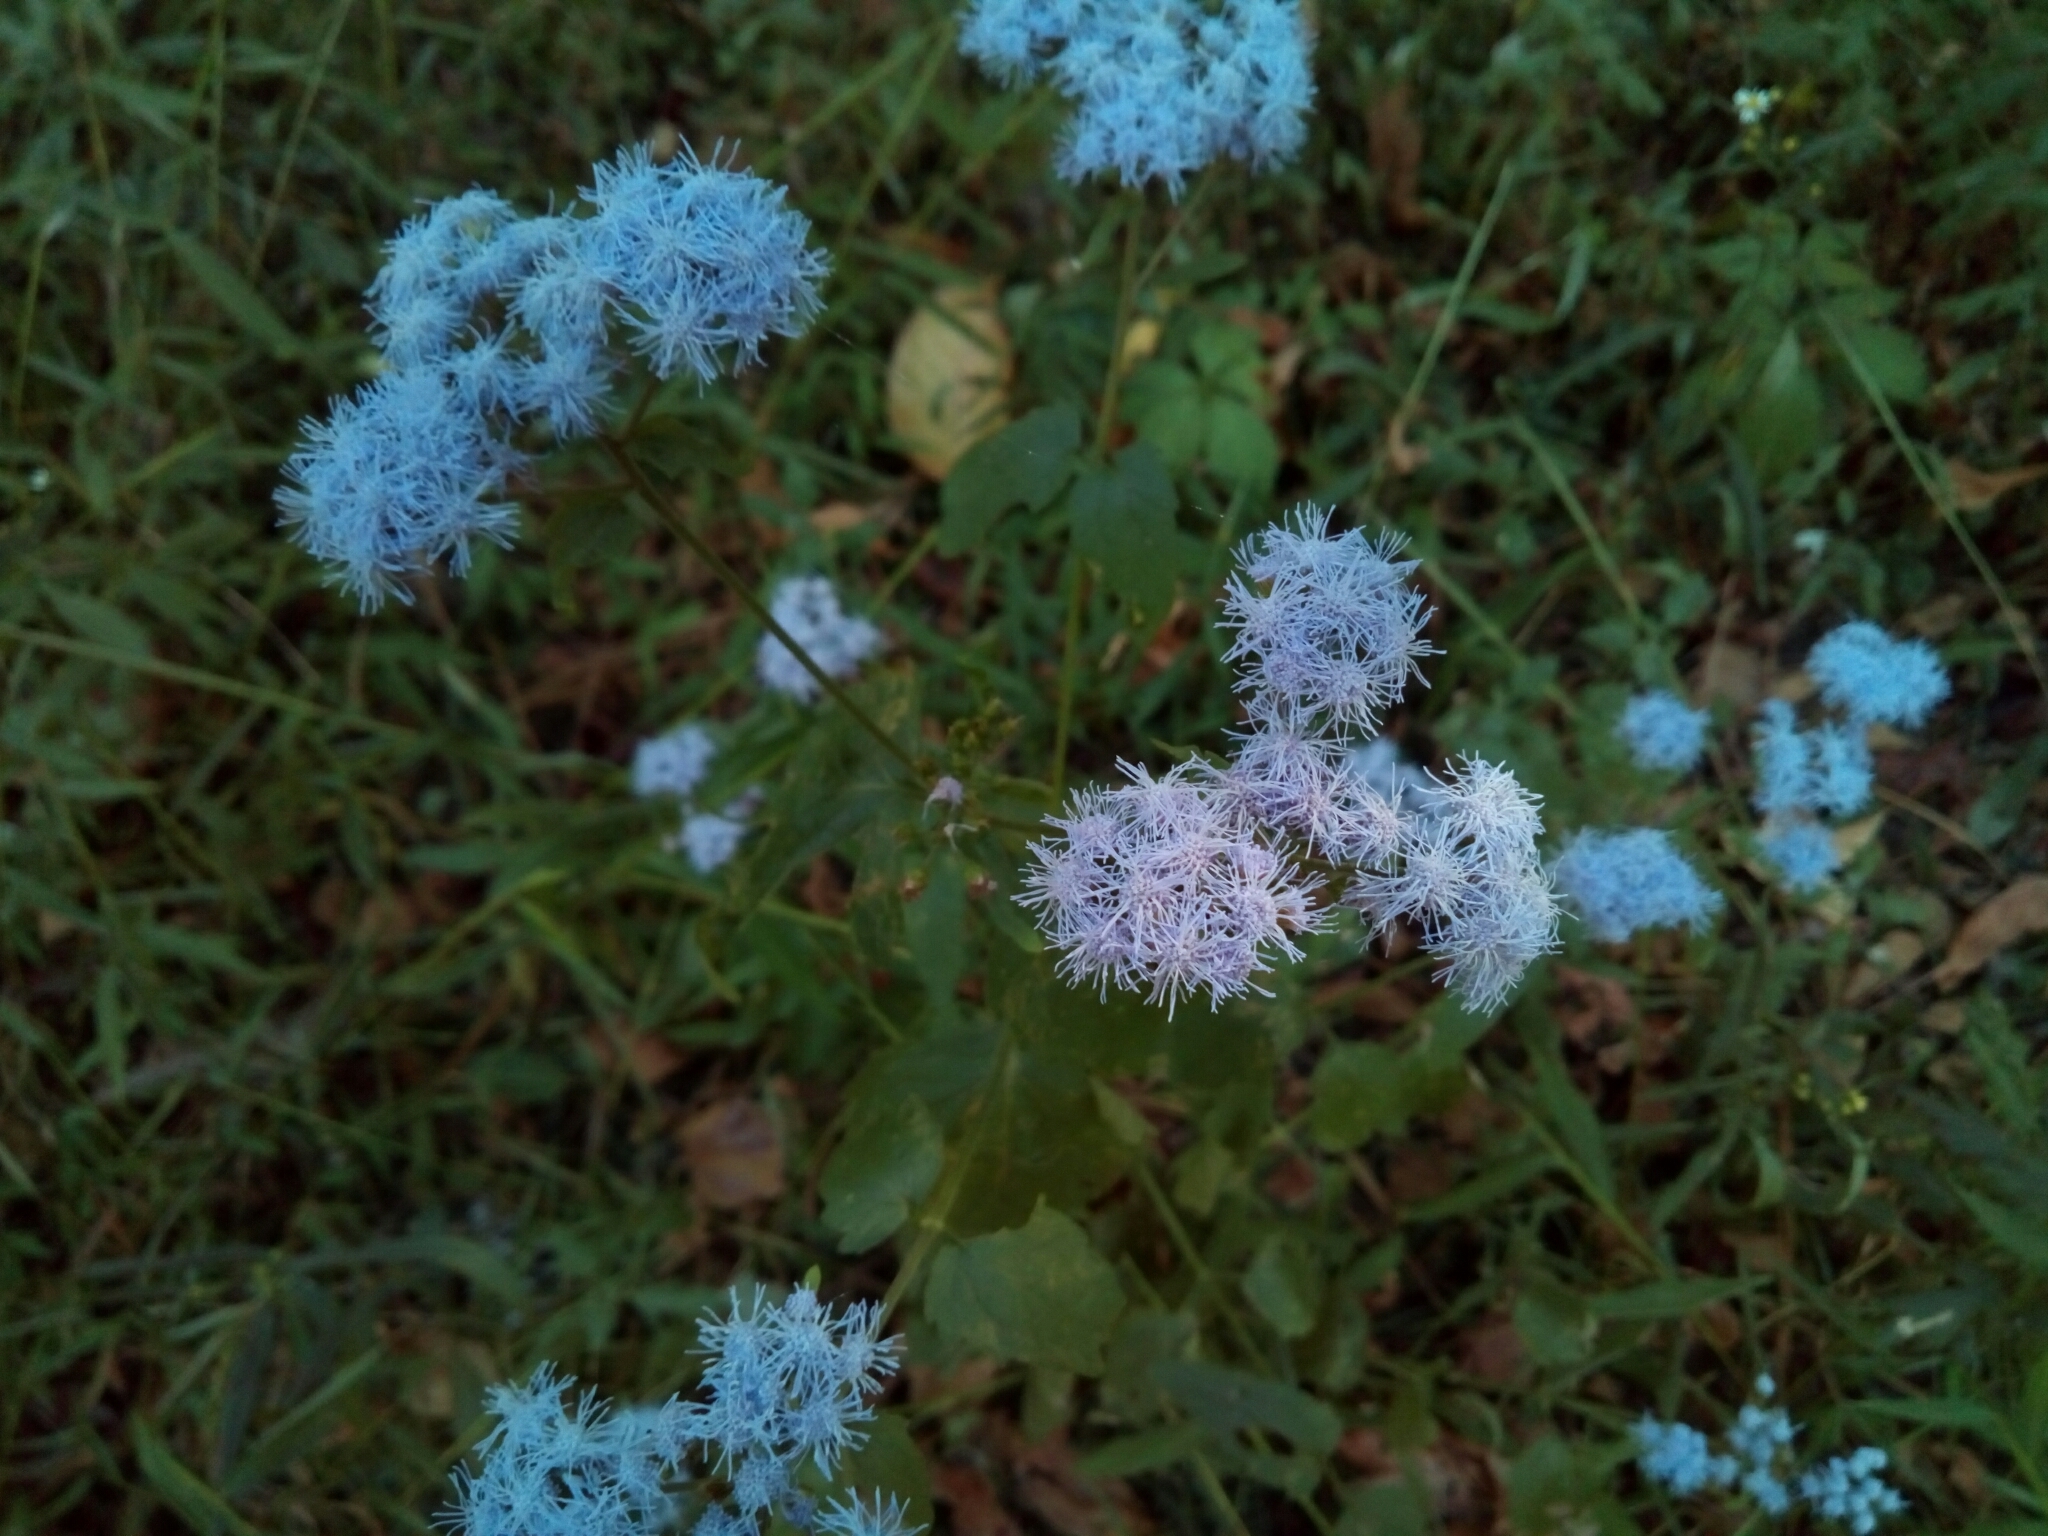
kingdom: Plantae
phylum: Tracheophyta
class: Magnoliopsida
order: Asterales
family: Asteraceae
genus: Conoclinium
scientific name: Conoclinium coelestinum
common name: Blue mistflower
